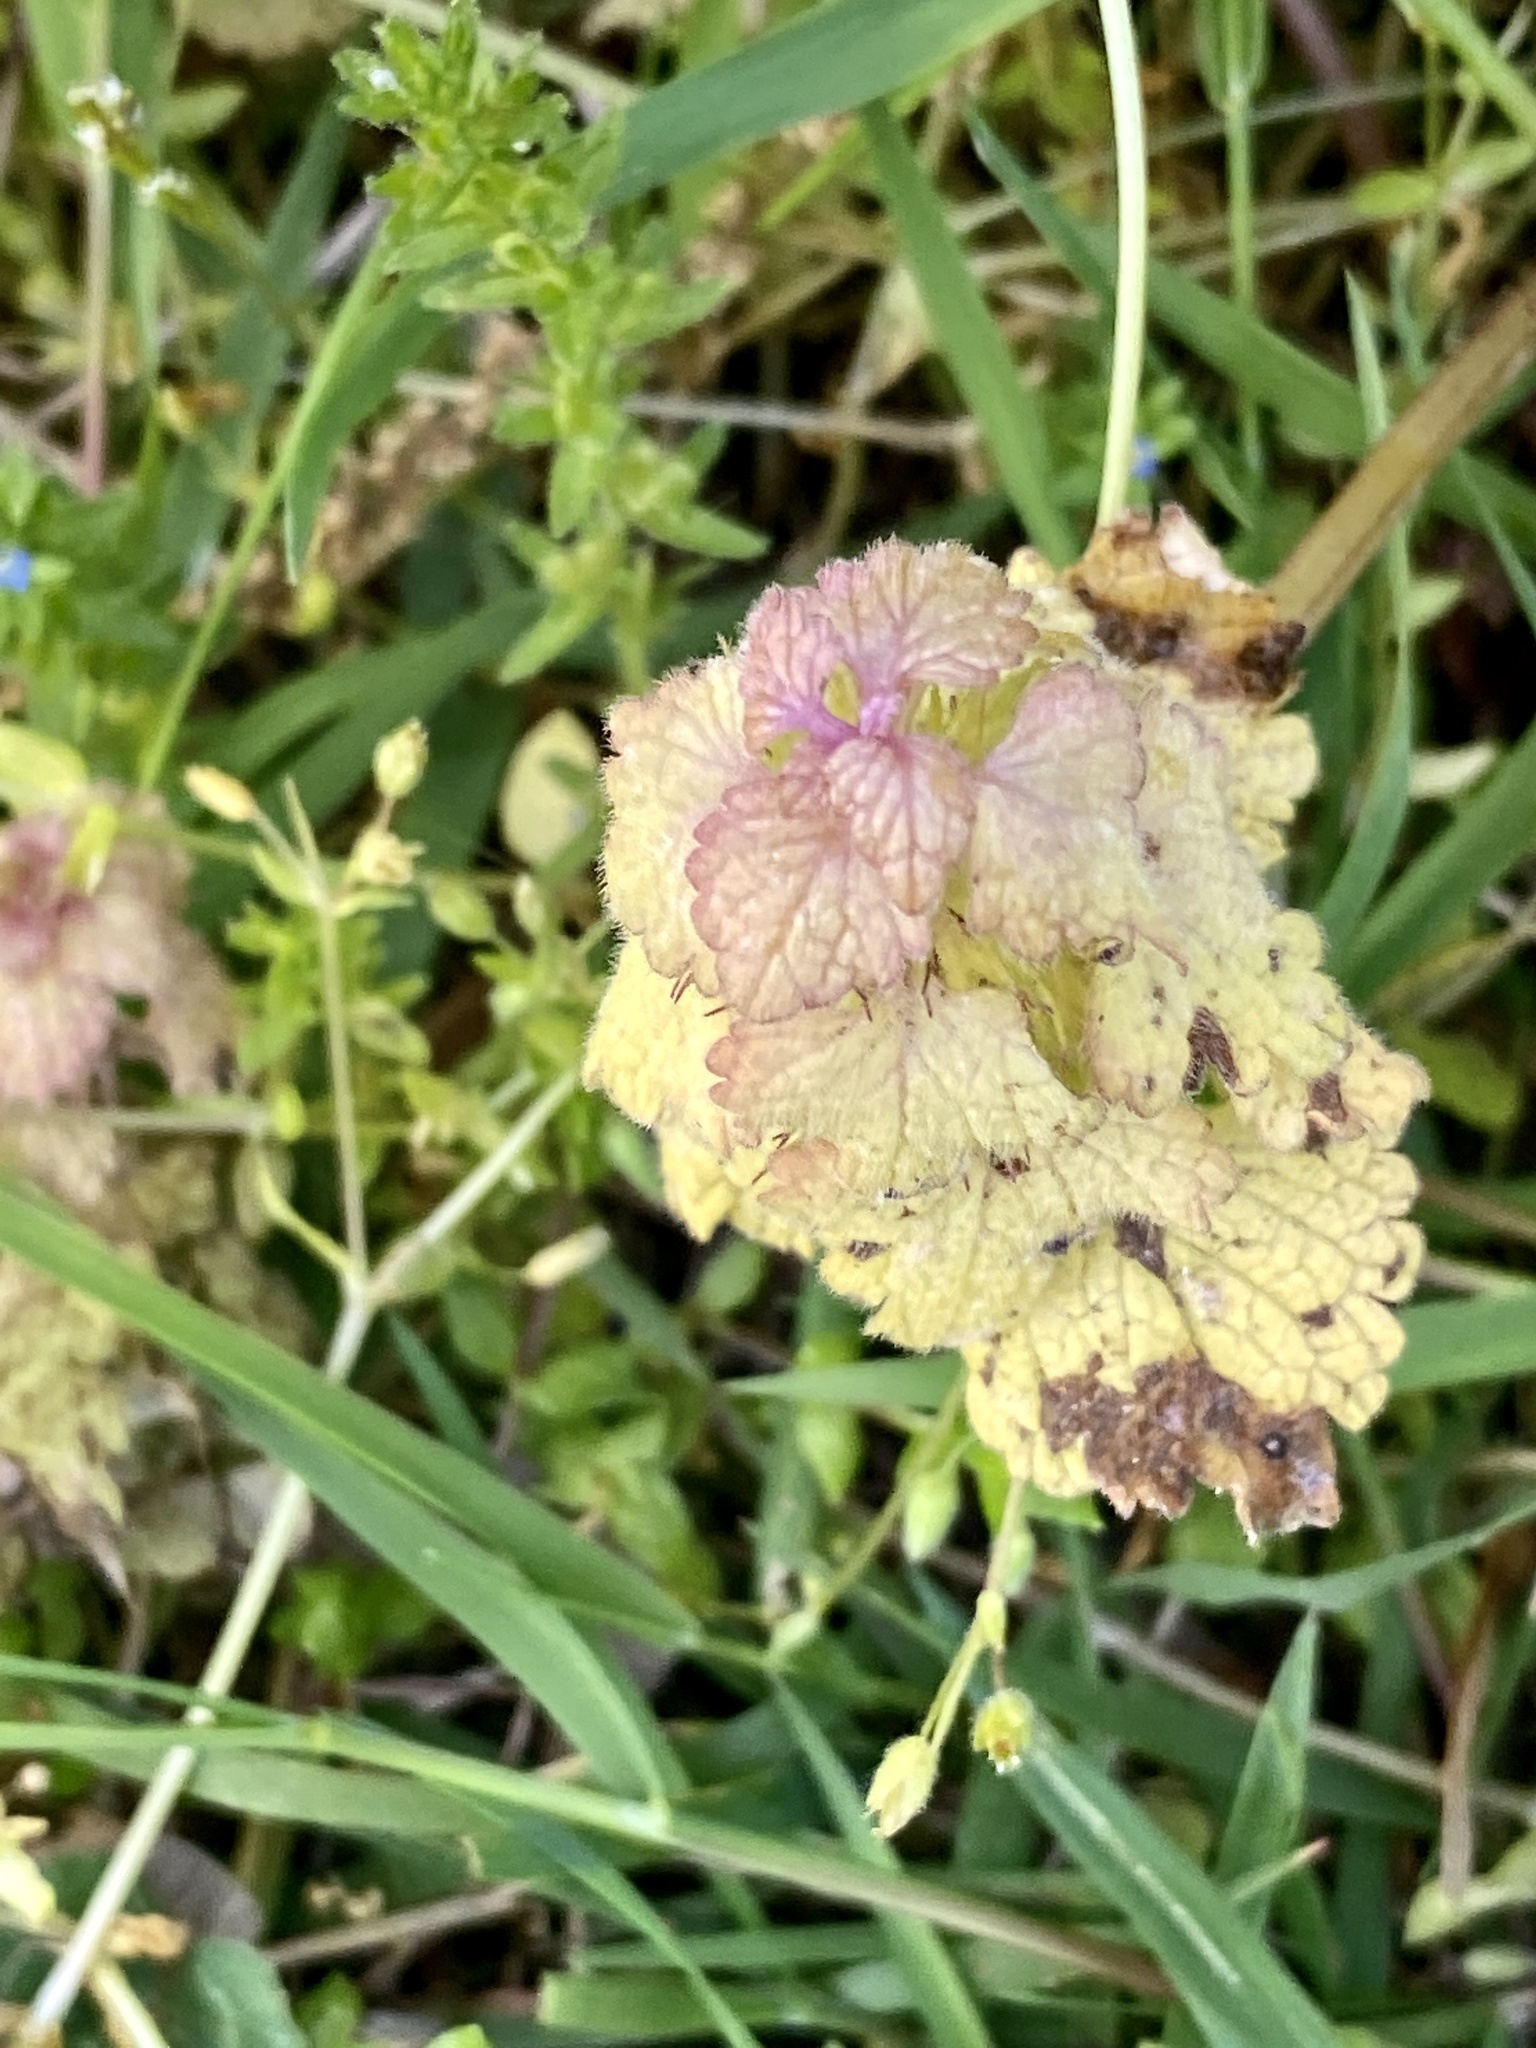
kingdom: Plantae
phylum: Tracheophyta
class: Magnoliopsida
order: Lamiales
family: Lamiaceae
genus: Lamium
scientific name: Lamium purpureum
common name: Red dead-nettle
